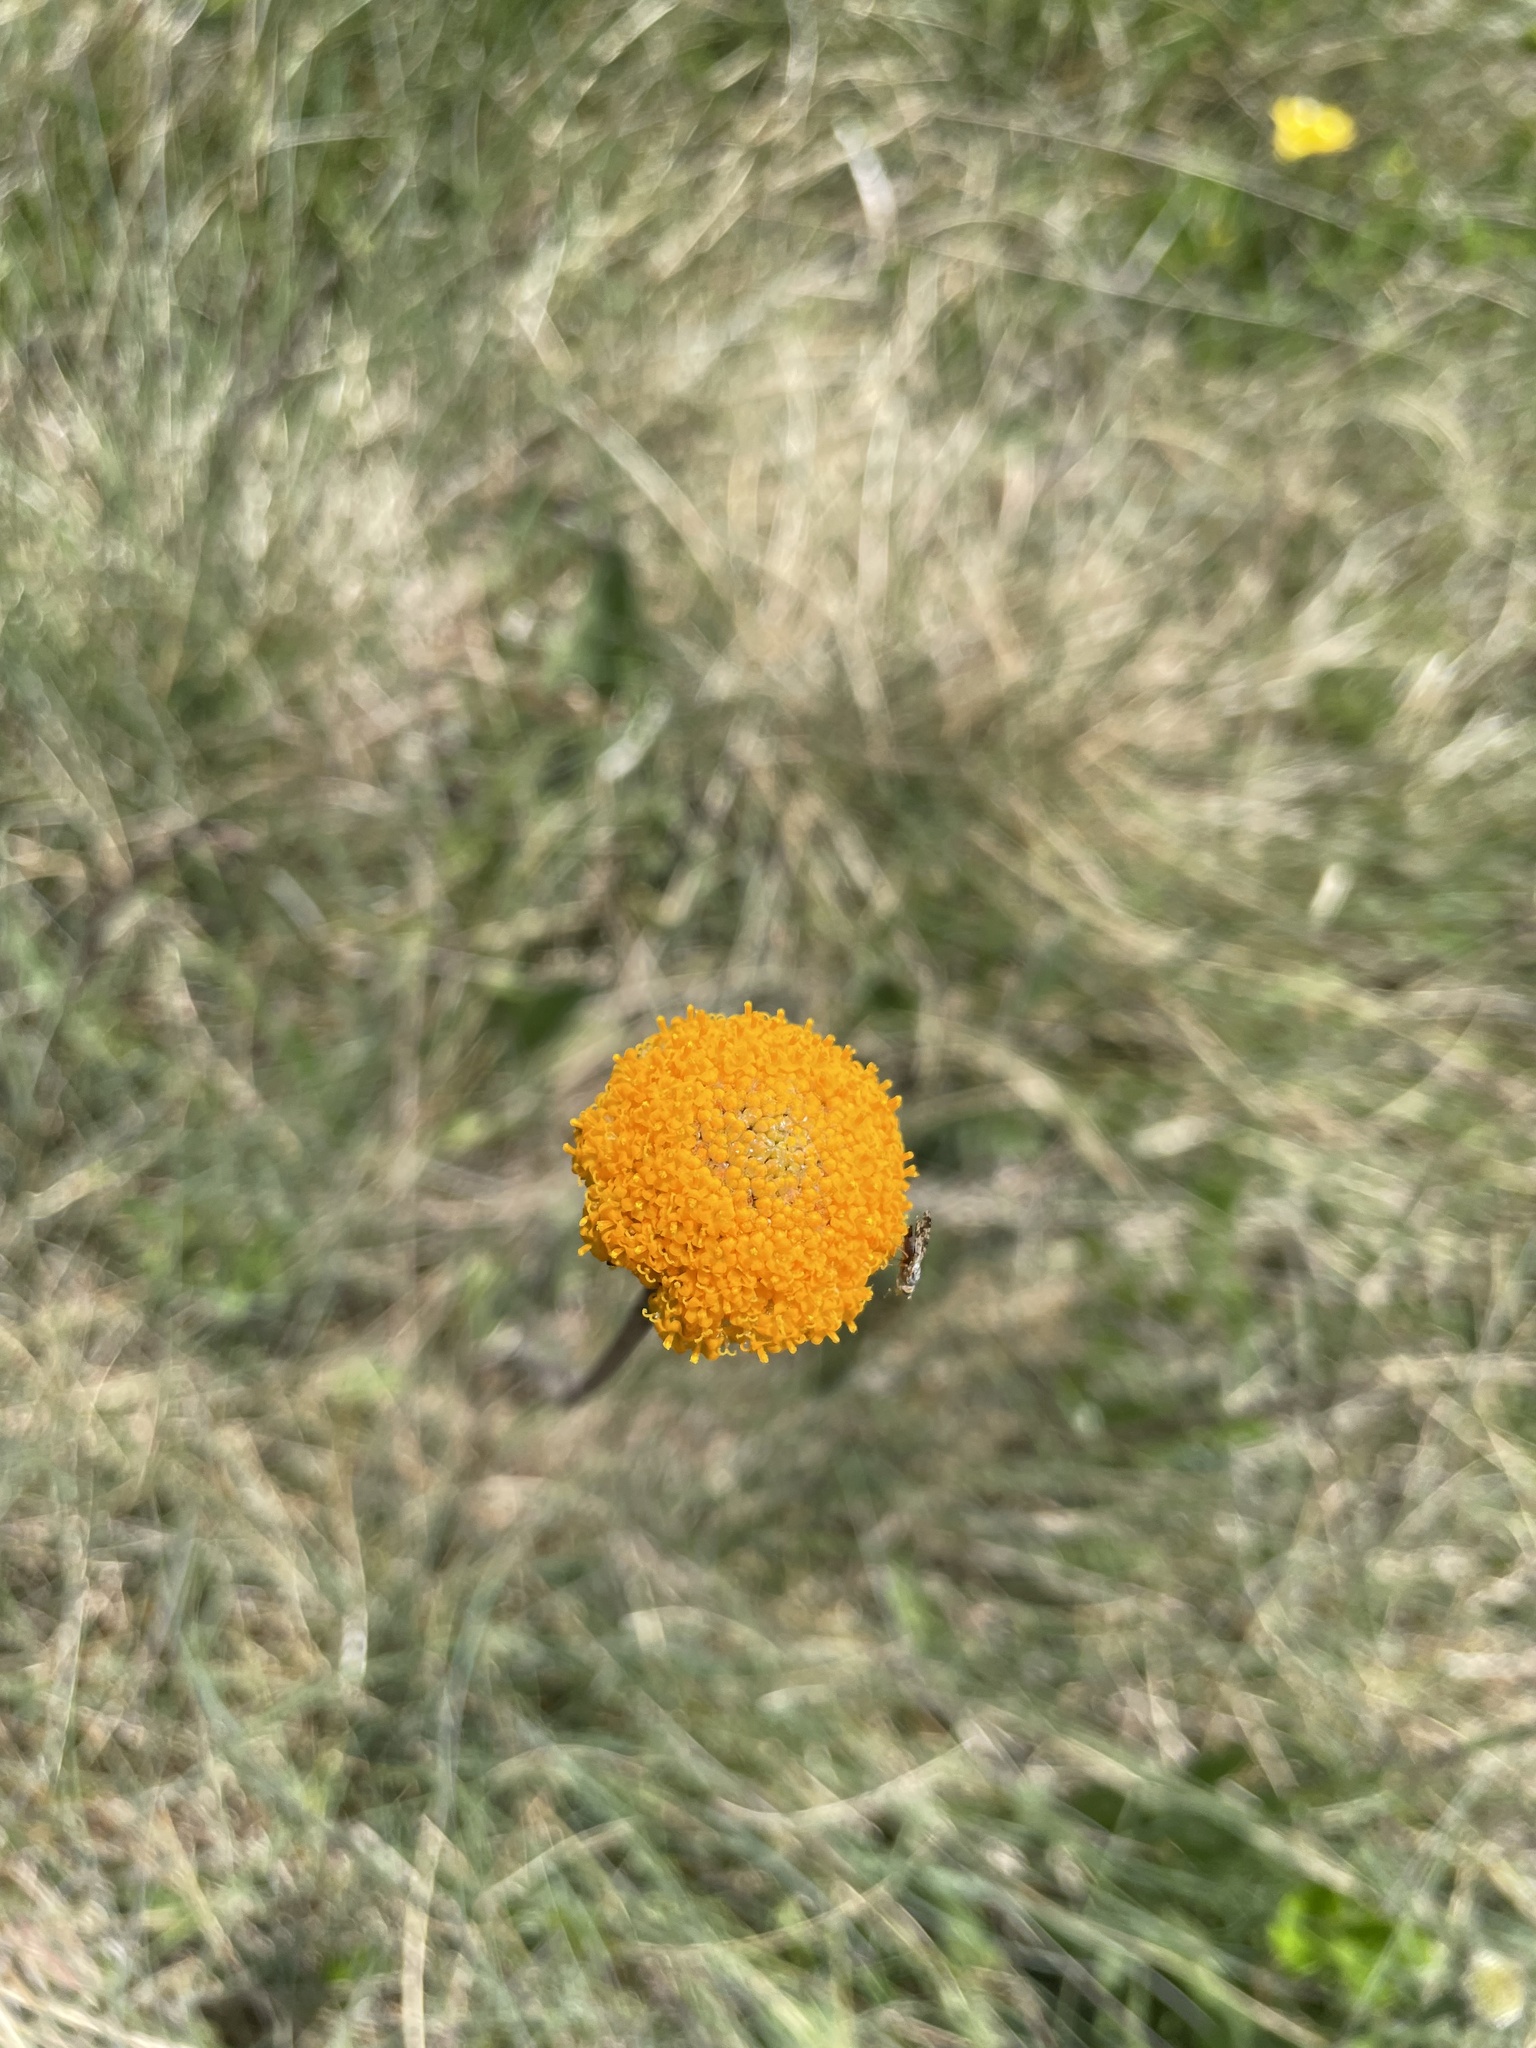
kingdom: Plantae
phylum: Tracheophyta
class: Magnoliopsida
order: Asterales
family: Asteraceae
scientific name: Asteraceae
